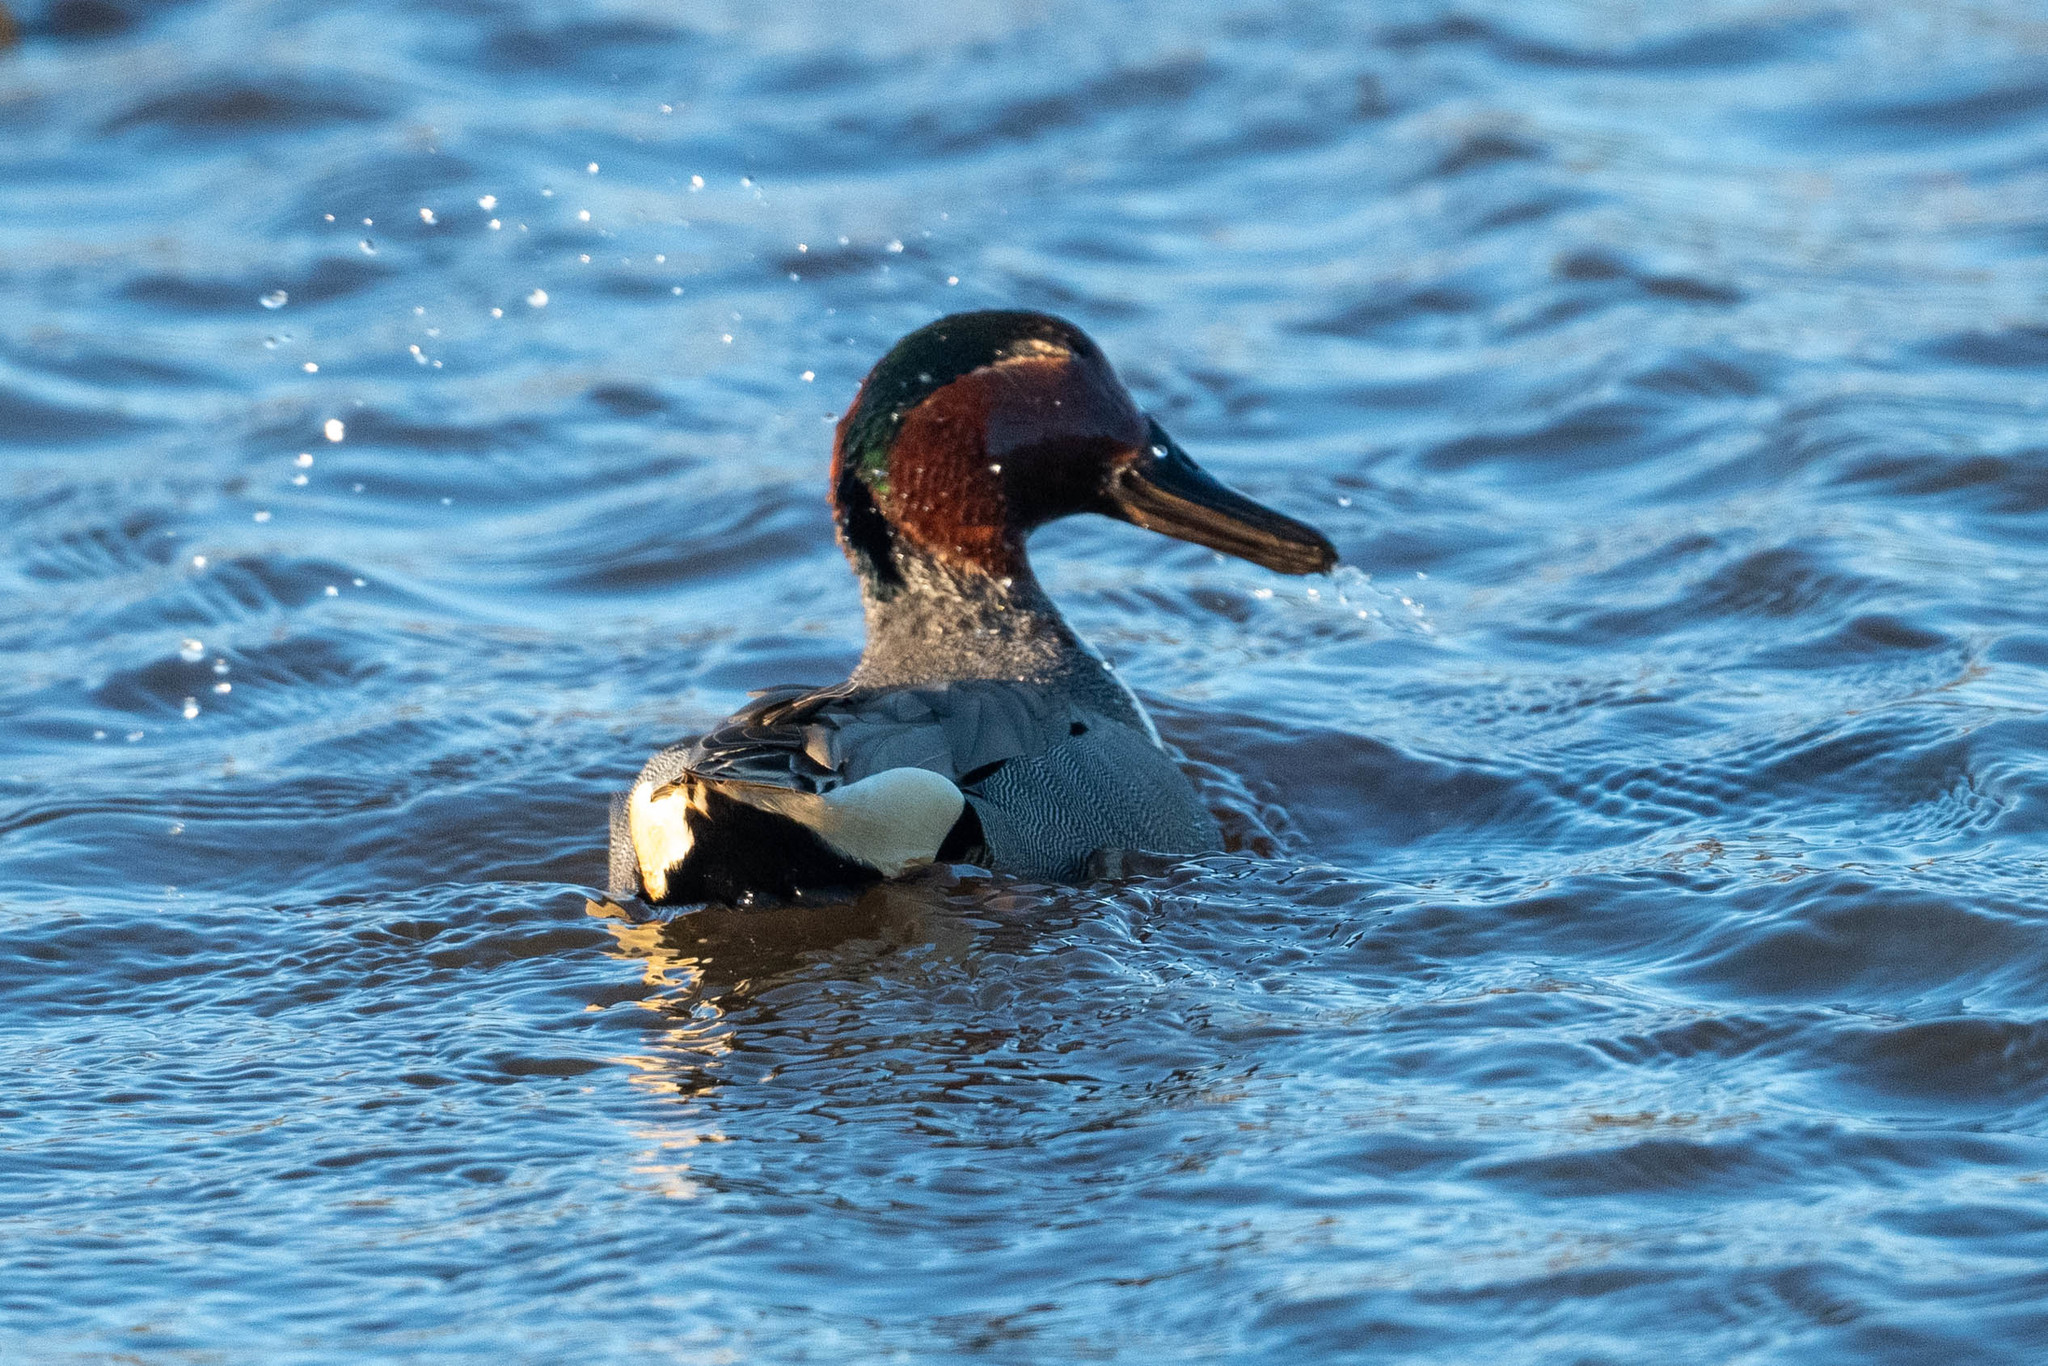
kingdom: Animalia
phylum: Chordata
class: Aves
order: Anseriformes
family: Anatidae
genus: Spatula
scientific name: Spatula clypeata
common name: Northern shoveler
